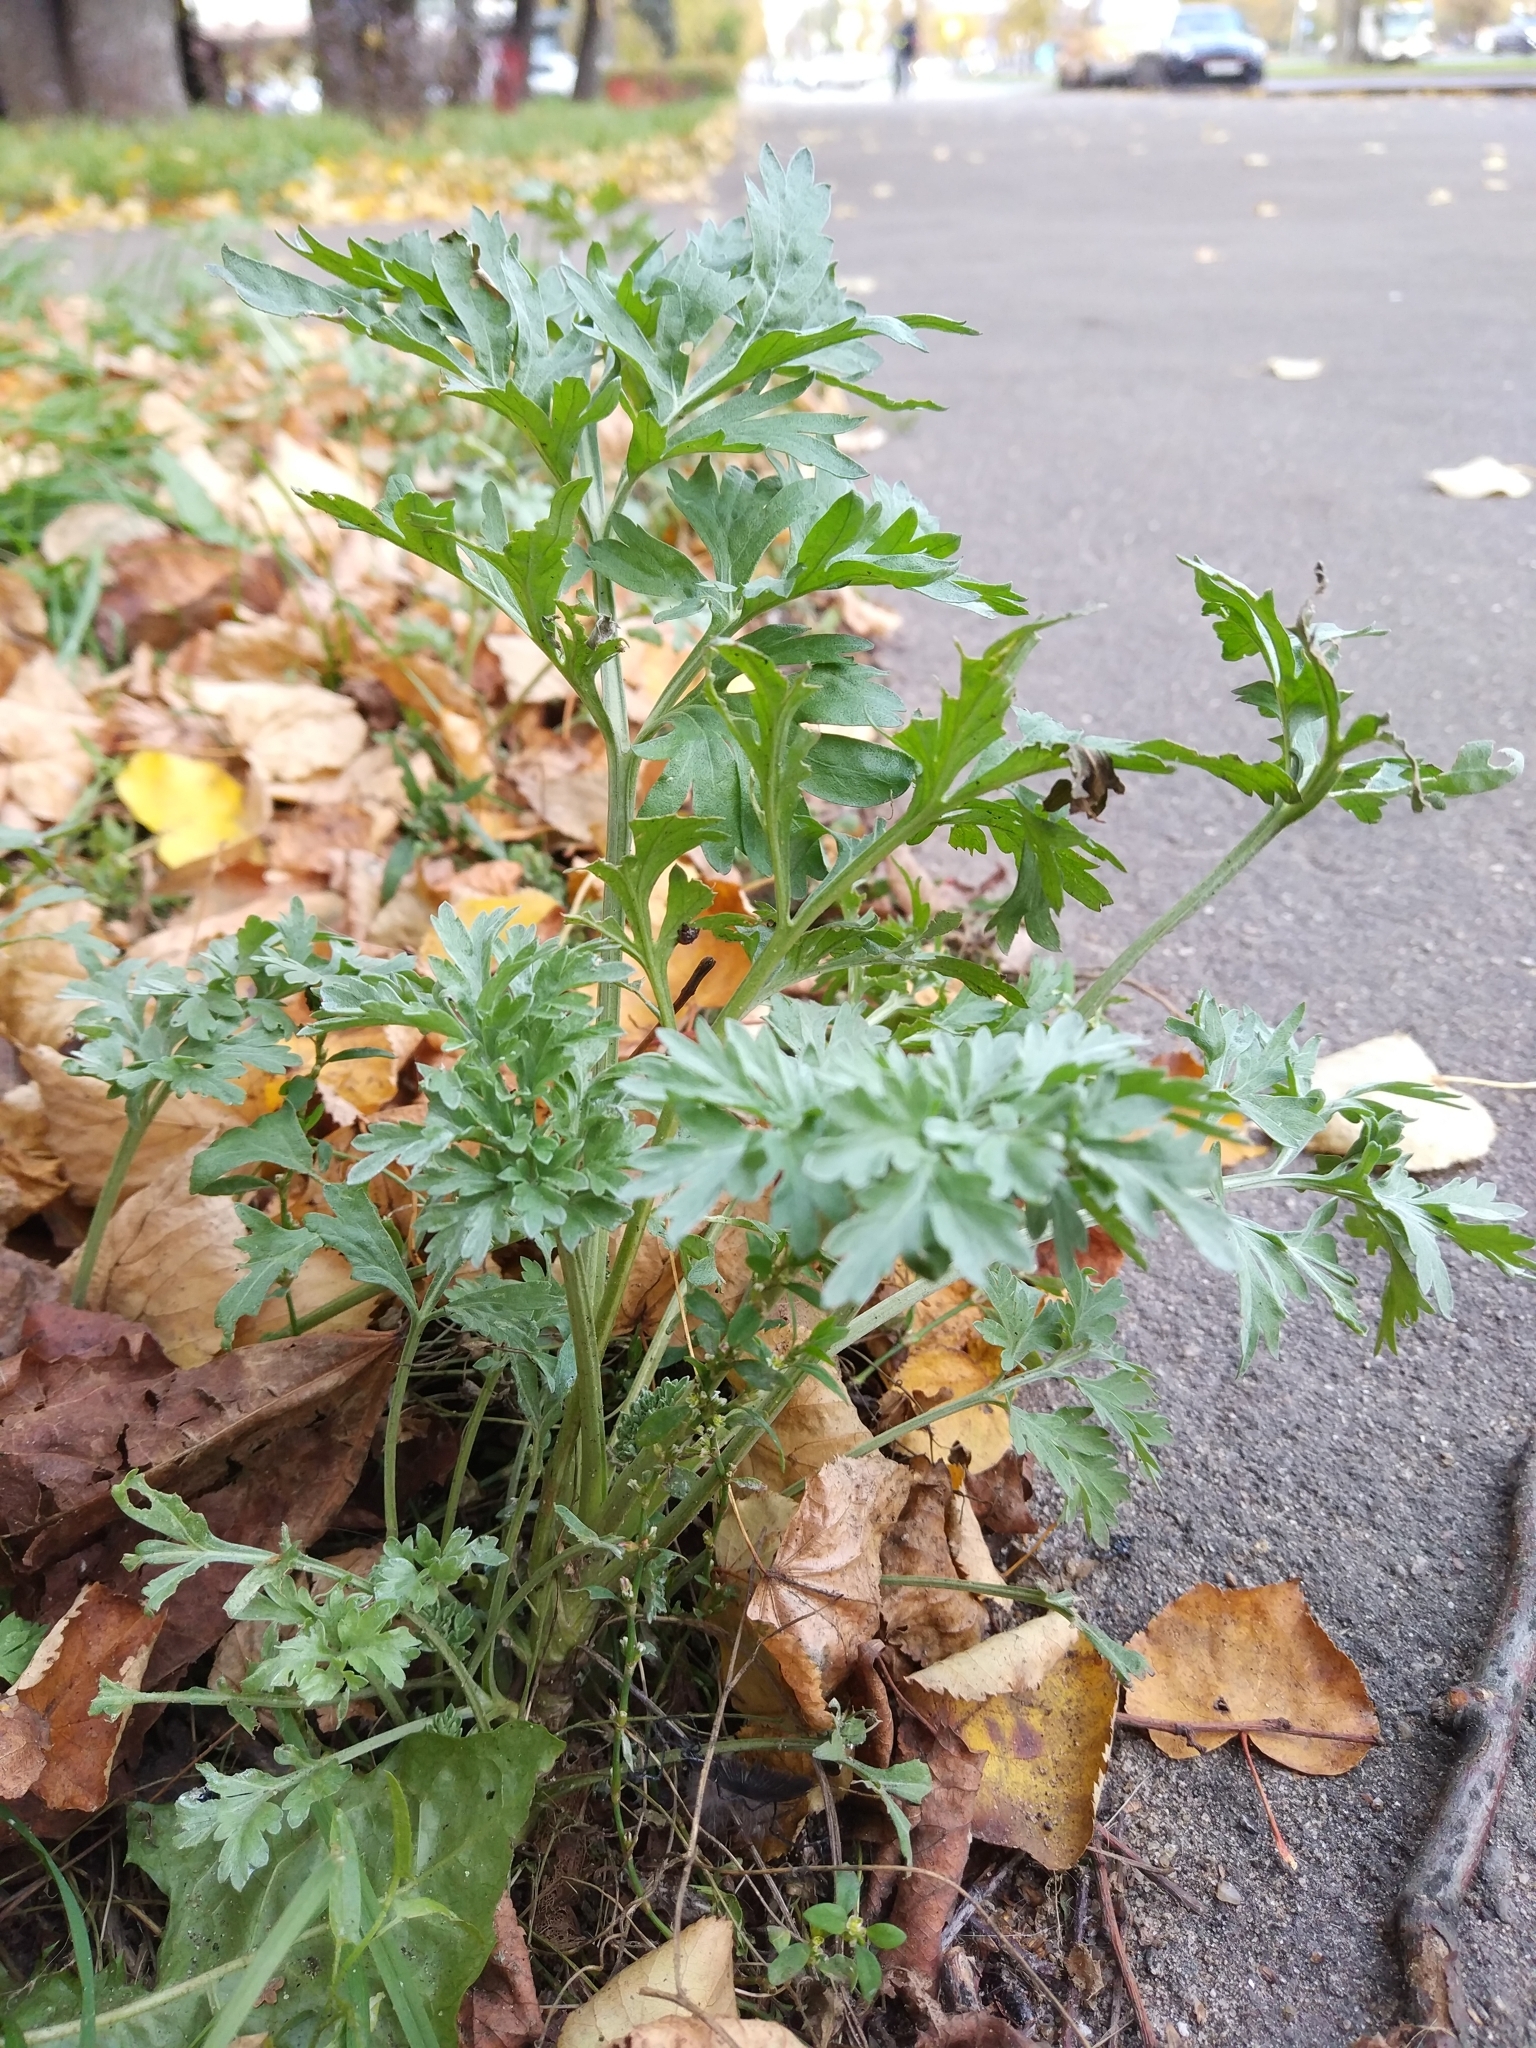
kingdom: Plantae
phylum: Tracheophyta
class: Magnoliopsida
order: Asterales
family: Asteraceae
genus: Artemisia
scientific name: Artemisia absinthium
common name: Wormwood
